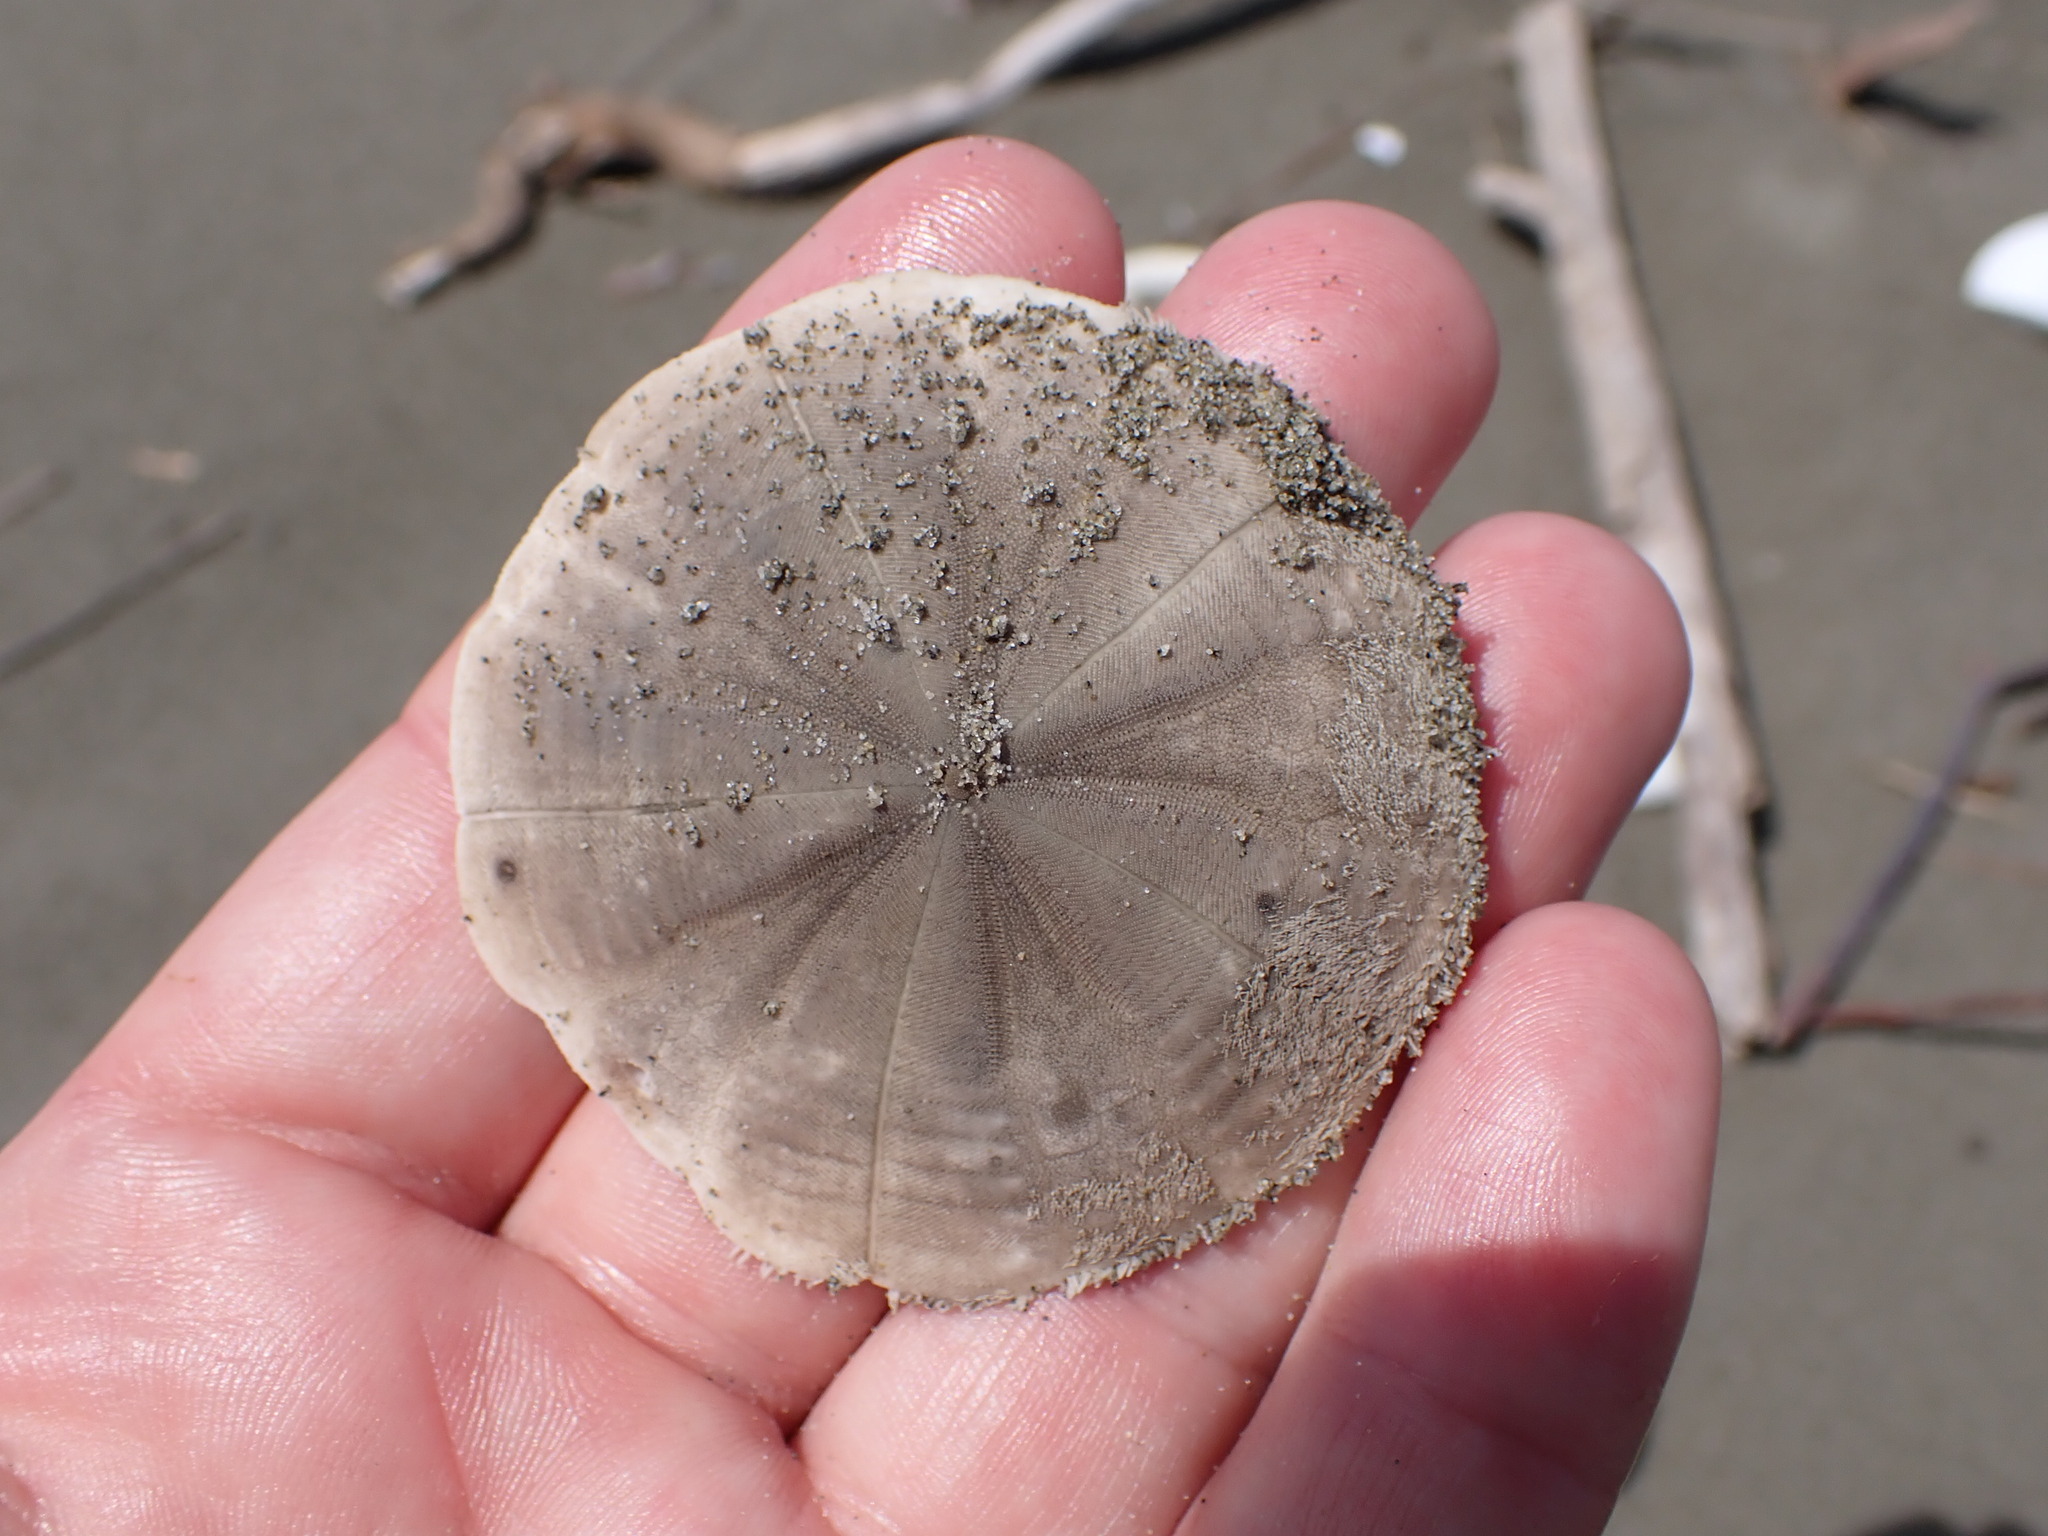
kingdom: Animalia
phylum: Echinodermata
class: Echinoidea
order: Clypeasteroida
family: Clypeasteridae
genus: Fellaster
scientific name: Fellaster zelandiae
